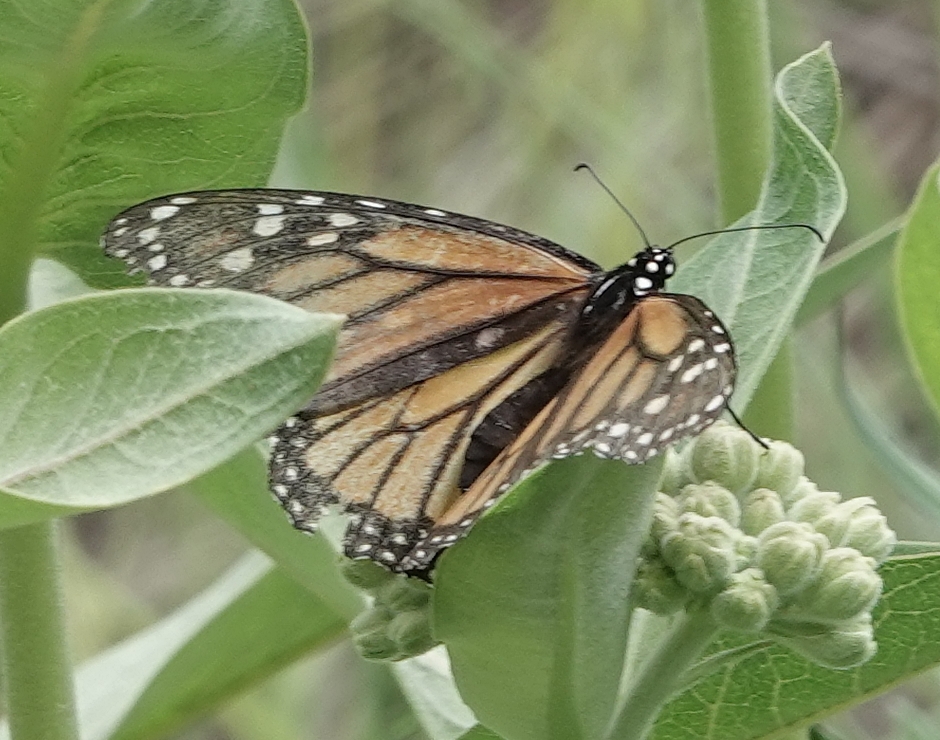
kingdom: Animalia
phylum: Arthropoda
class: Insecta
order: Lepidoptera
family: Nymphalidae
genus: Danaus
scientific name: Danaus plexippus
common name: Monarch
